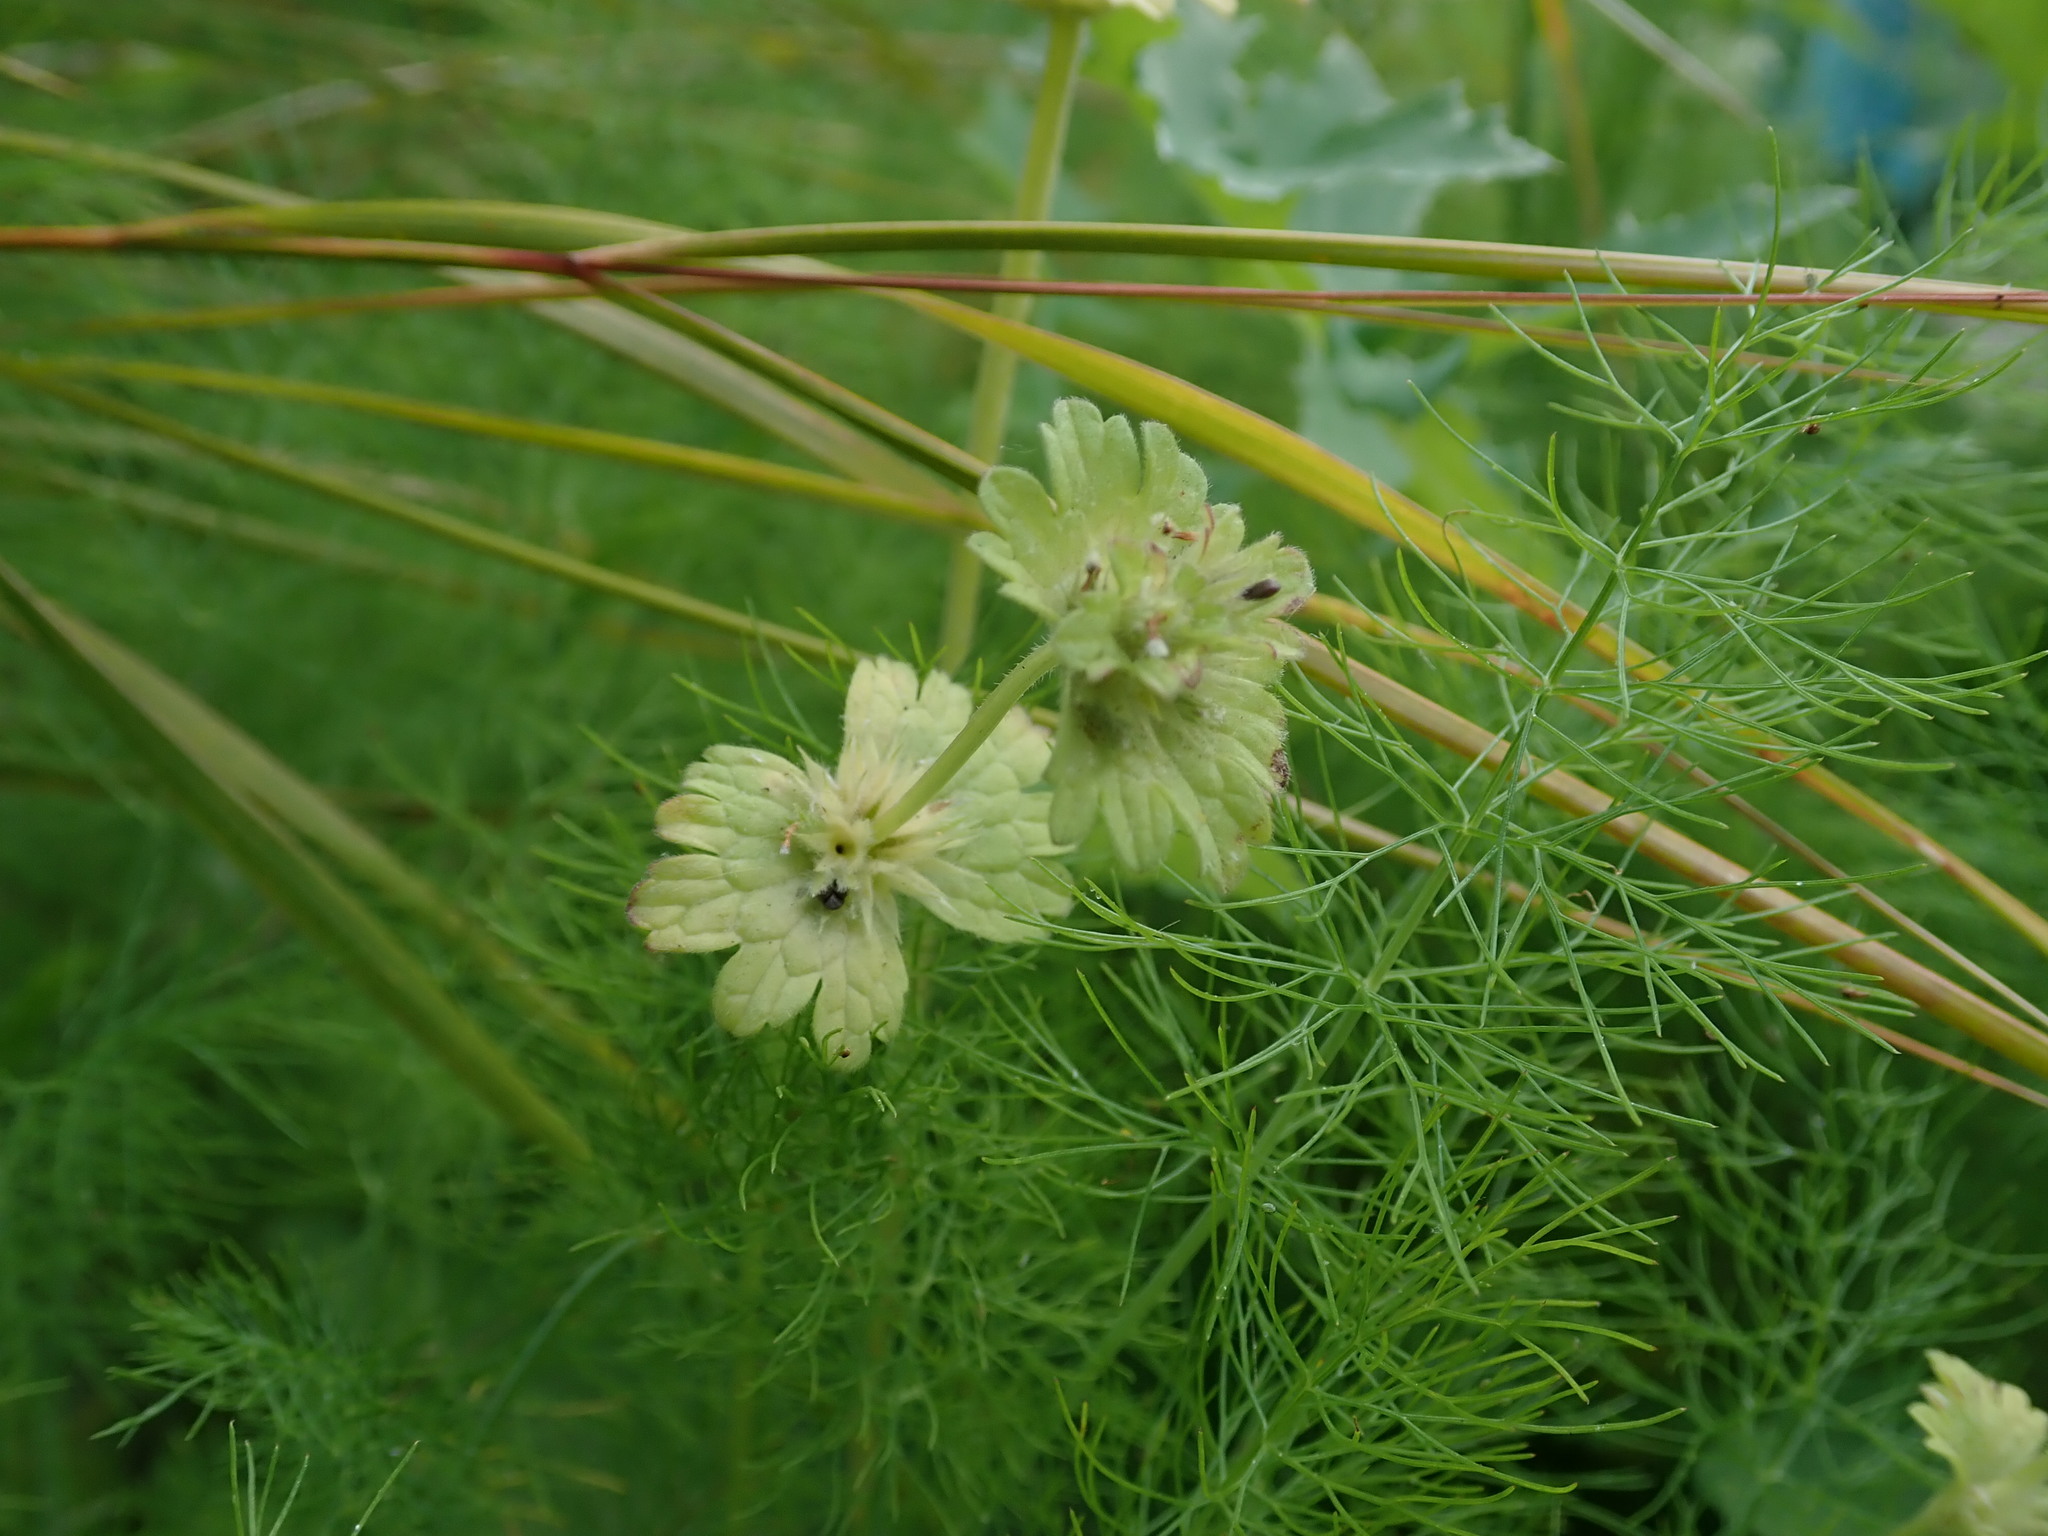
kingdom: Plantae
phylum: Tracheophyta
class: Magnoliopsida
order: Lamiales
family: Lamiaceae
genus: Lamium
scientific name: Lamium amplexicaule
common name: Henbit dead-nettle
